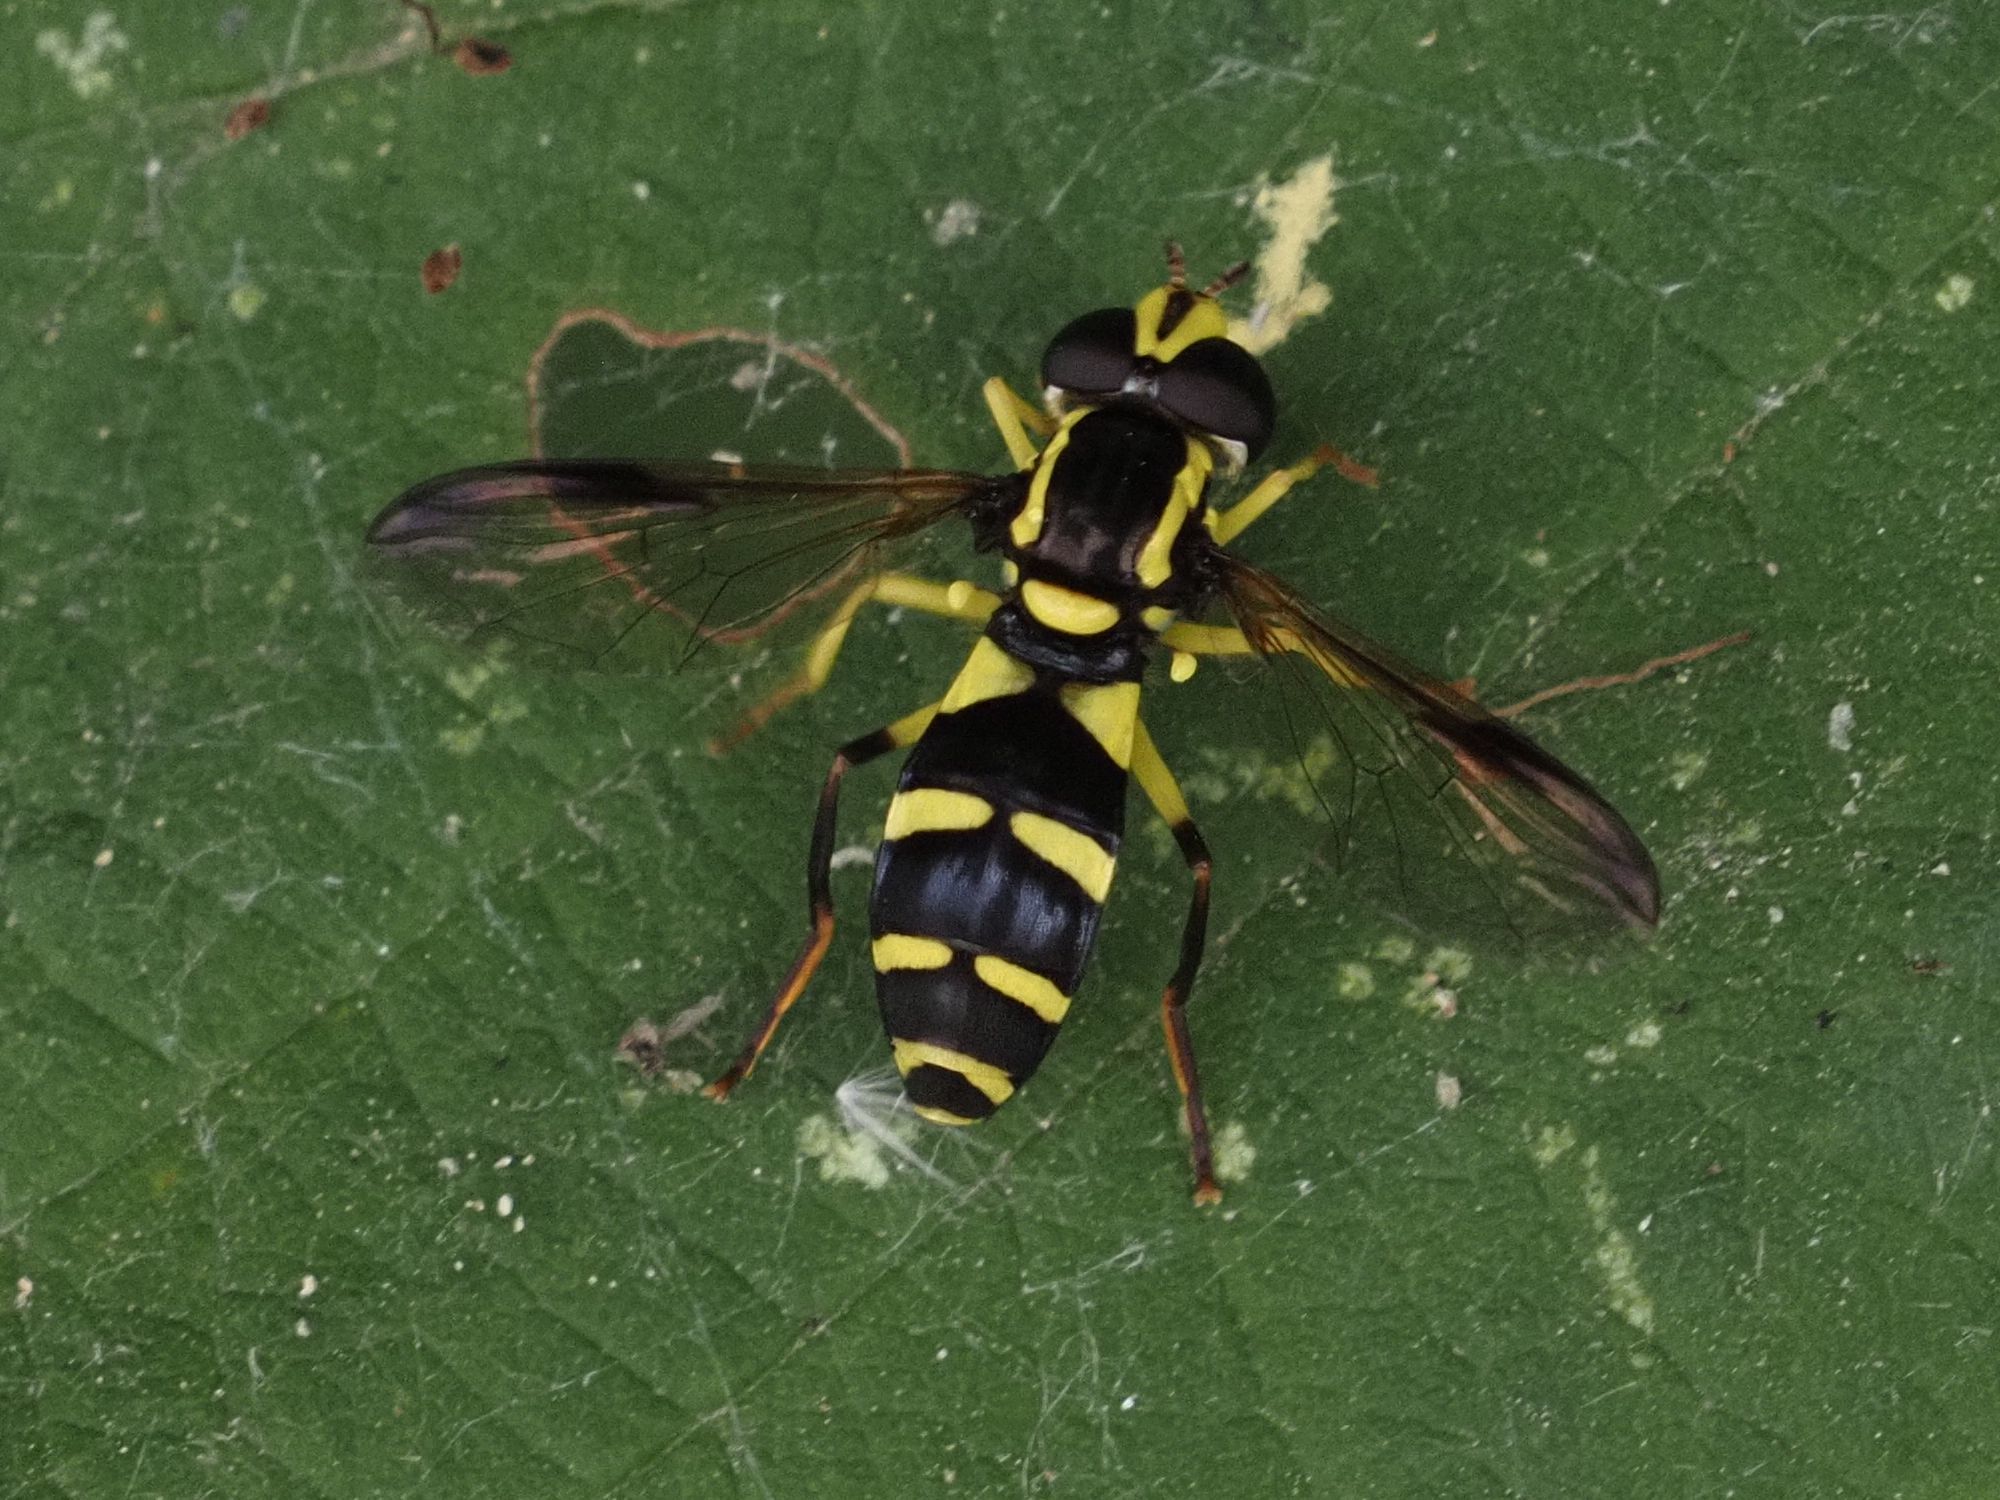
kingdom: Animalia
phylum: Arthropoda
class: Insecta
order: Diptera
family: Syrphidae
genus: Philhelius
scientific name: Philhelius dives
